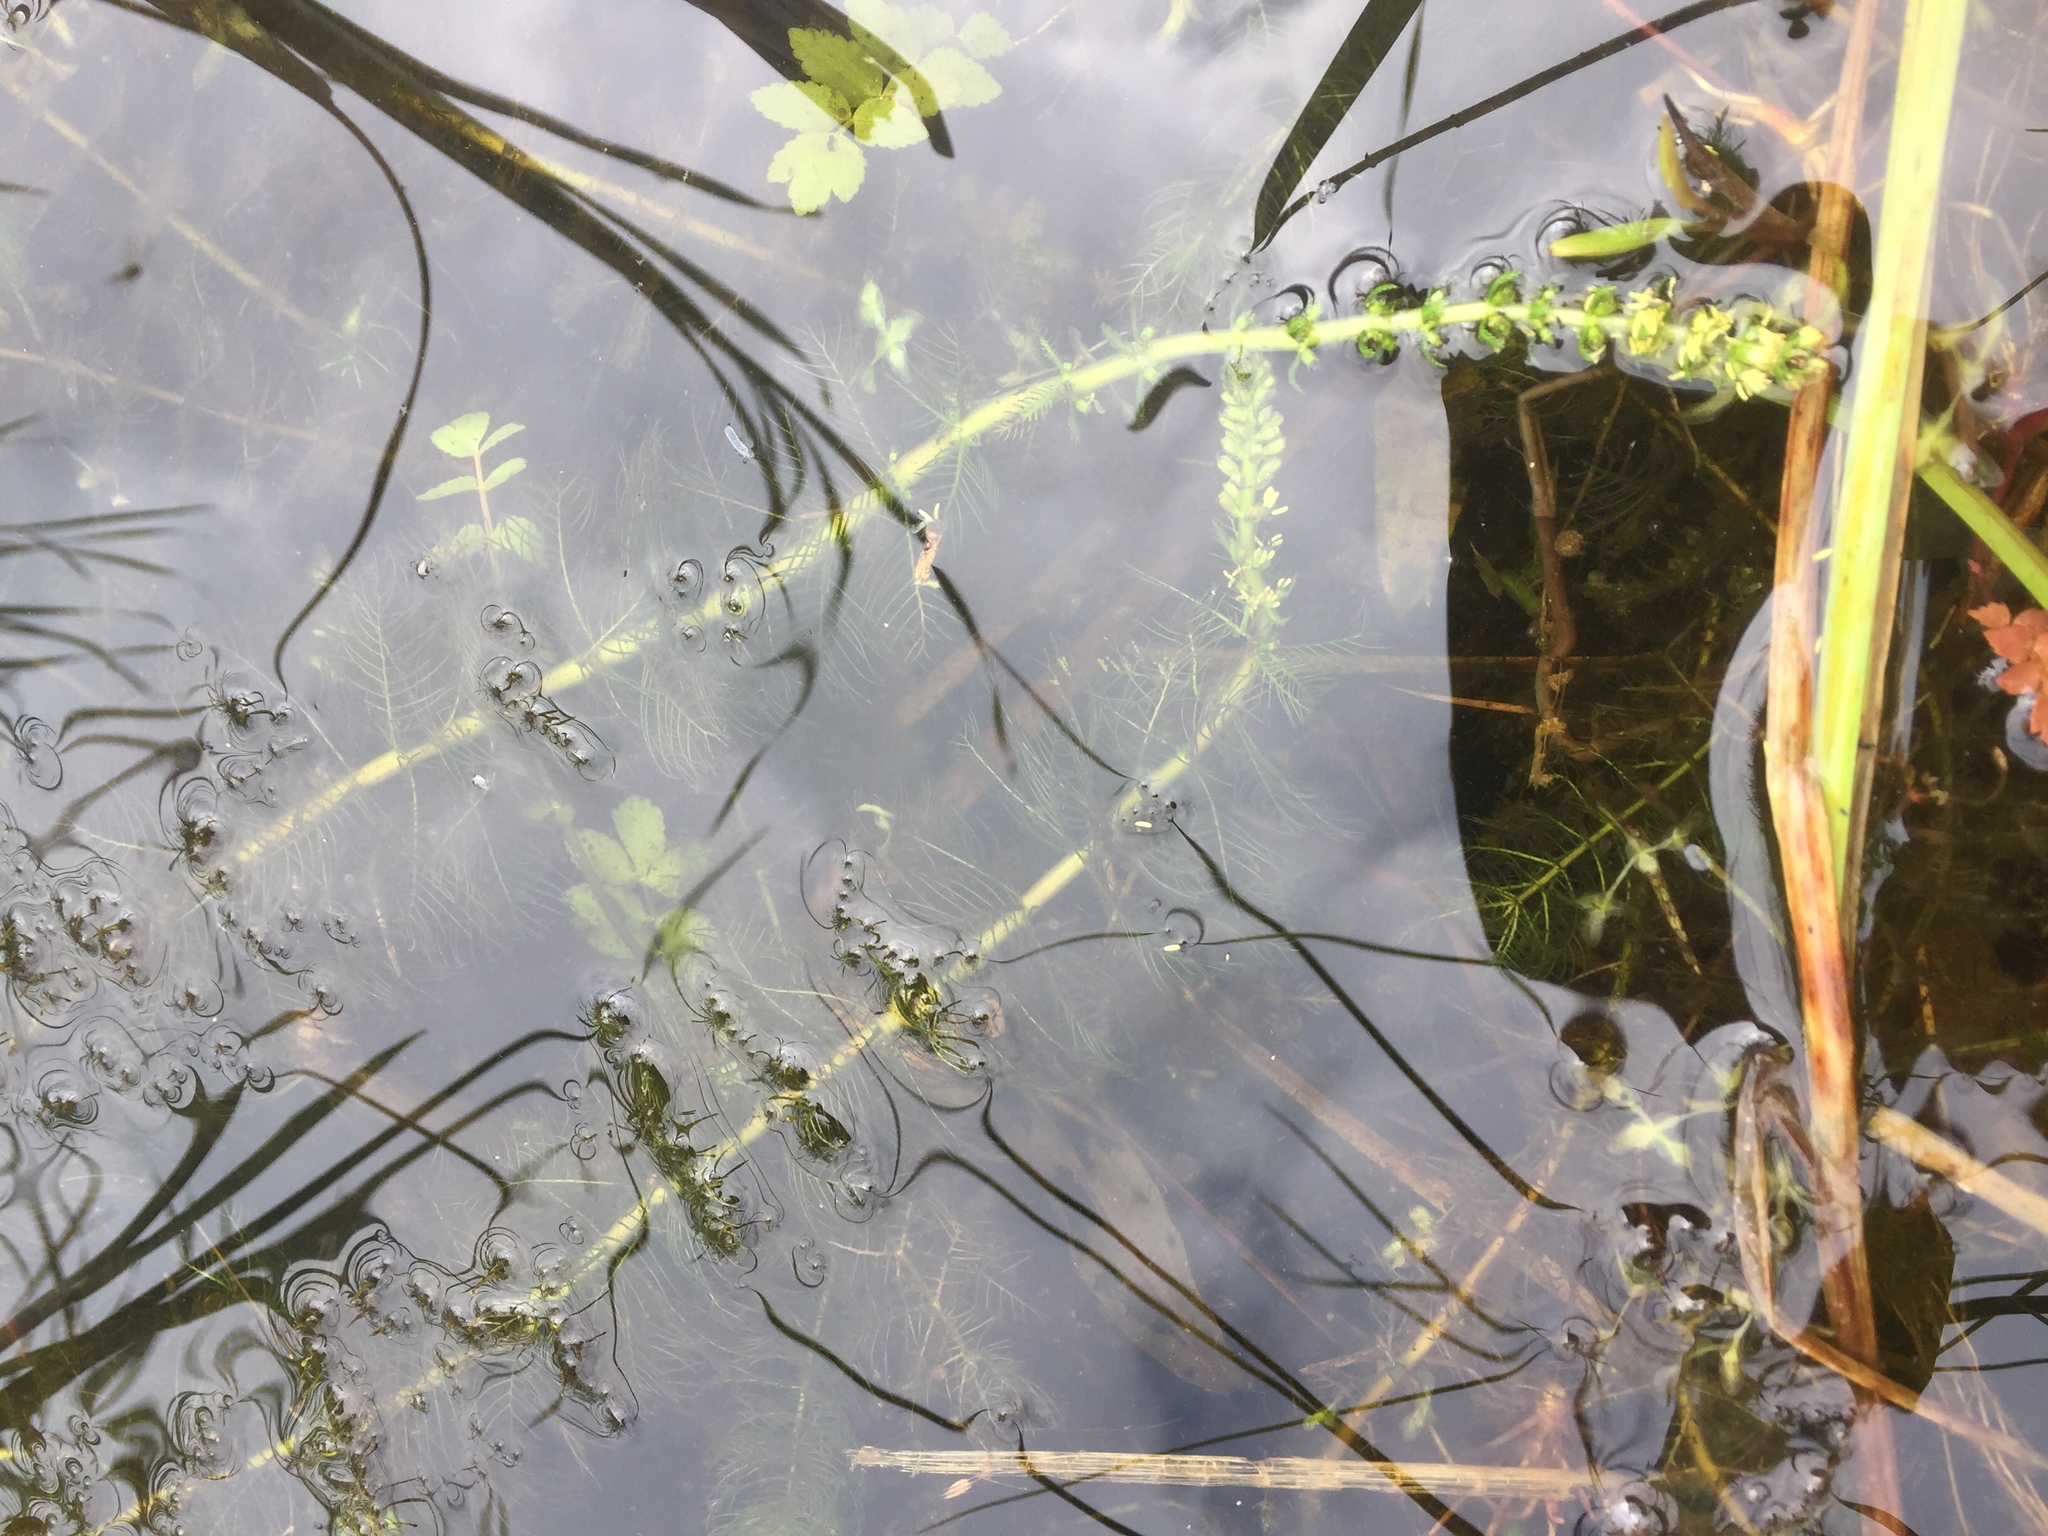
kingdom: Plantae
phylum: Tracheophyta
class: Magnoliopsida
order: Saxifragales
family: Haloragaceae
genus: Myriophyllum
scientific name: Myriophyllum verticillatum
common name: Whorled water-milfoil
